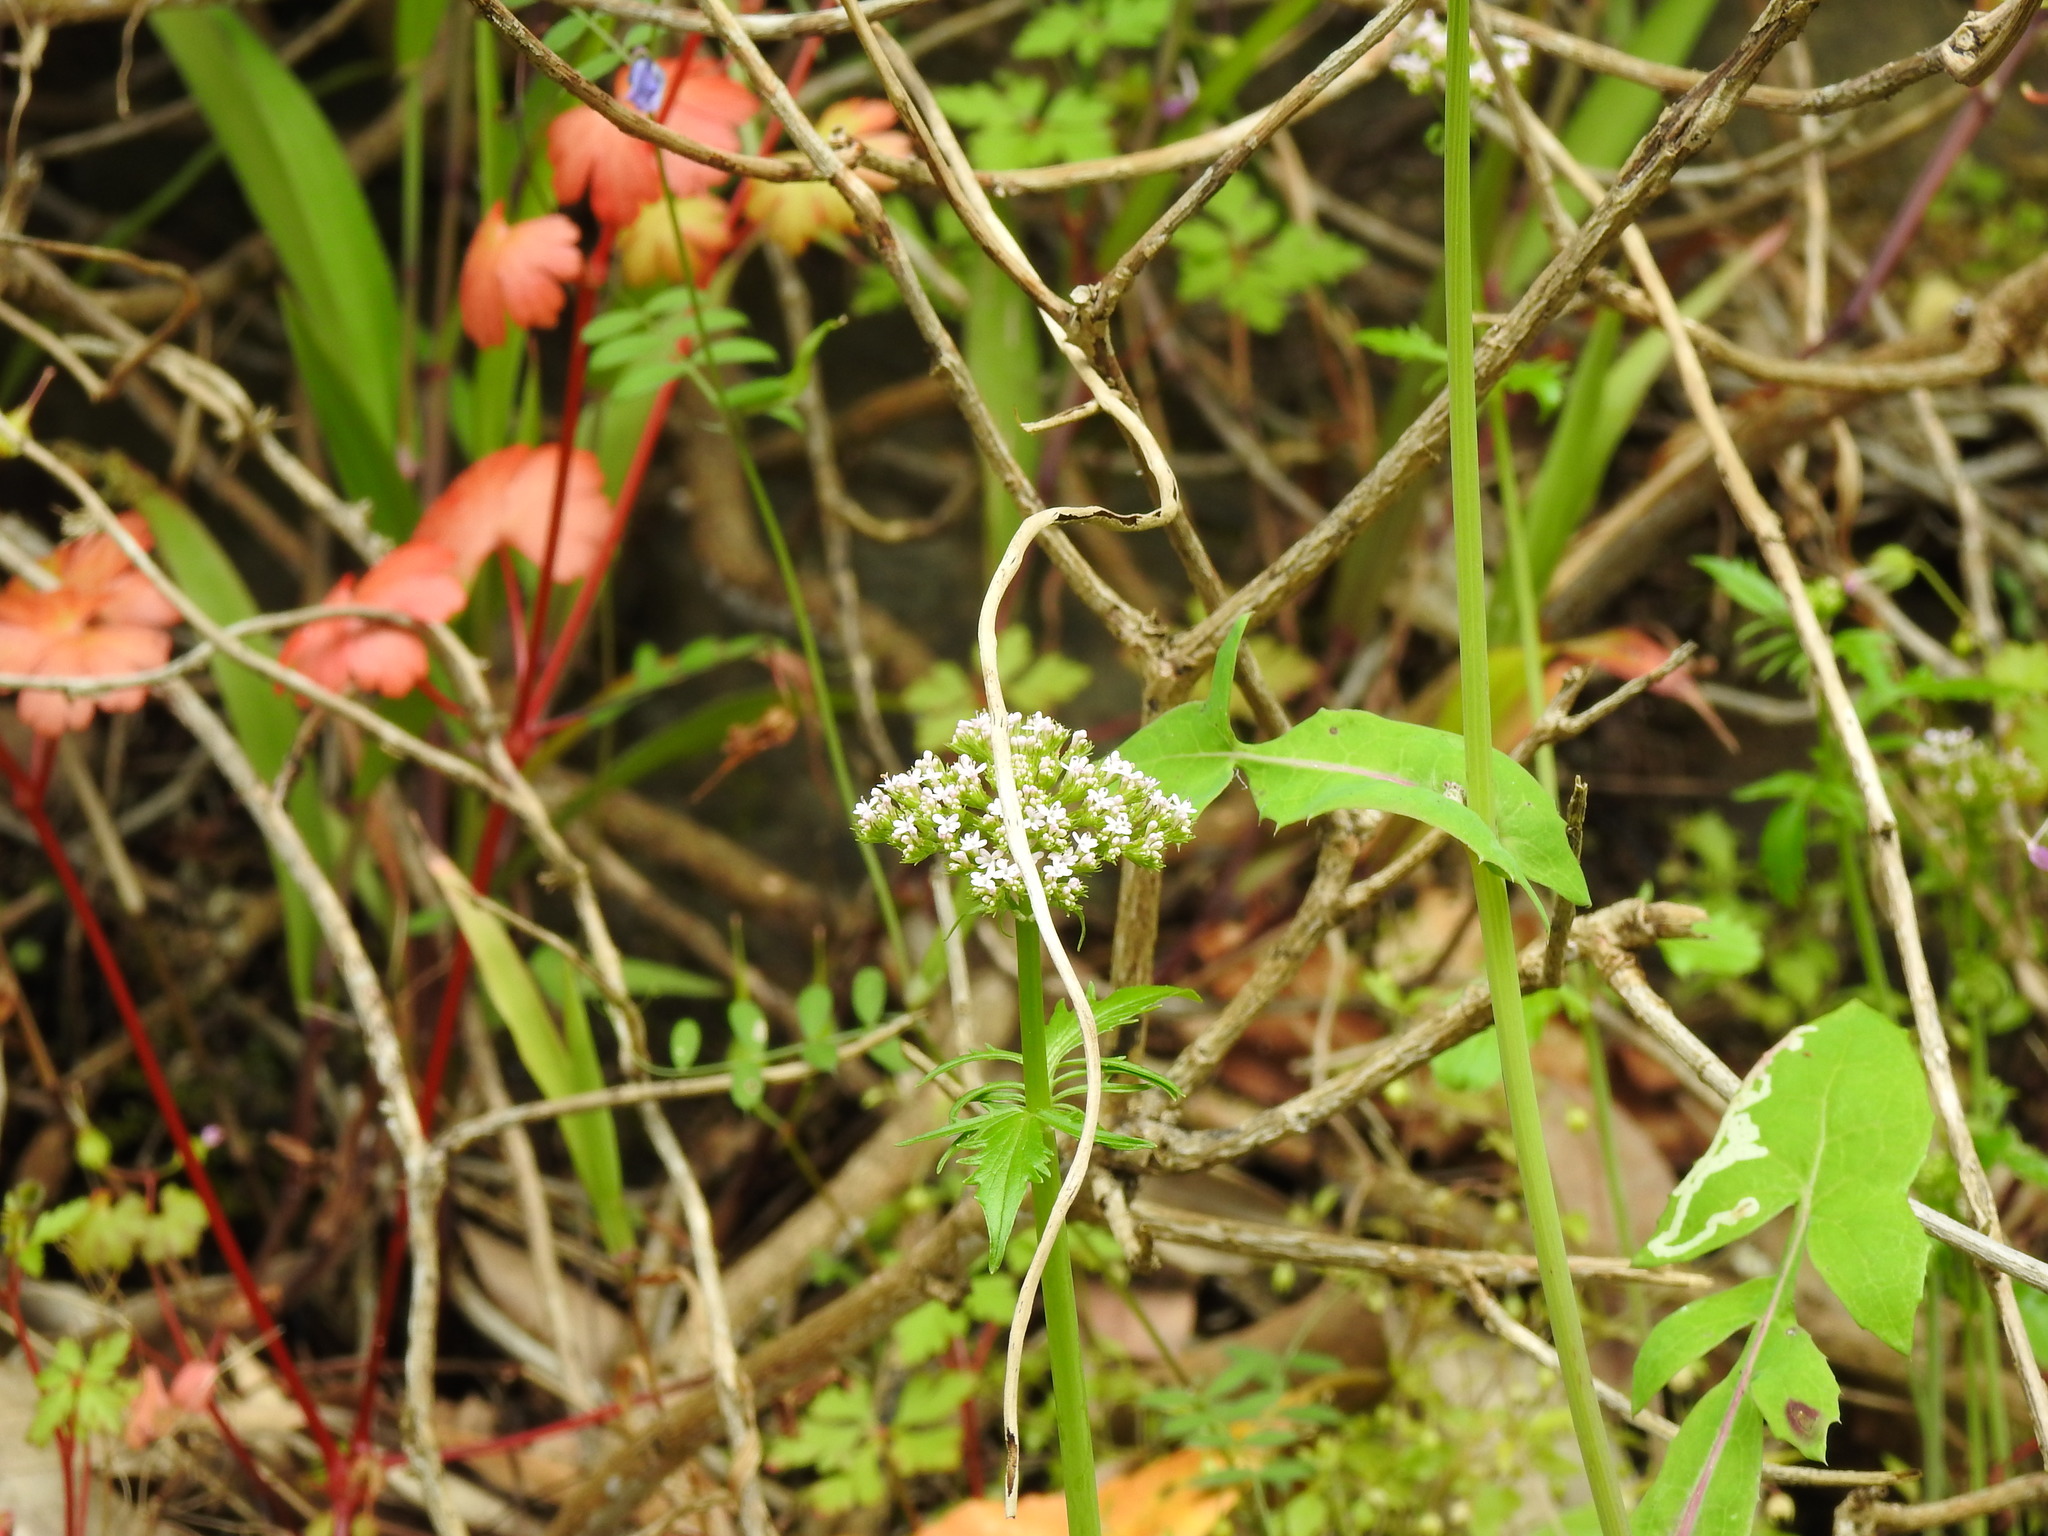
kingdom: Plantae
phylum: Tracheophyta
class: Magnoliopsida
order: Dipsacales
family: Caprifoliaceae
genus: Centranthus
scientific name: Centranthus calcitrapae
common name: Annual valerian
